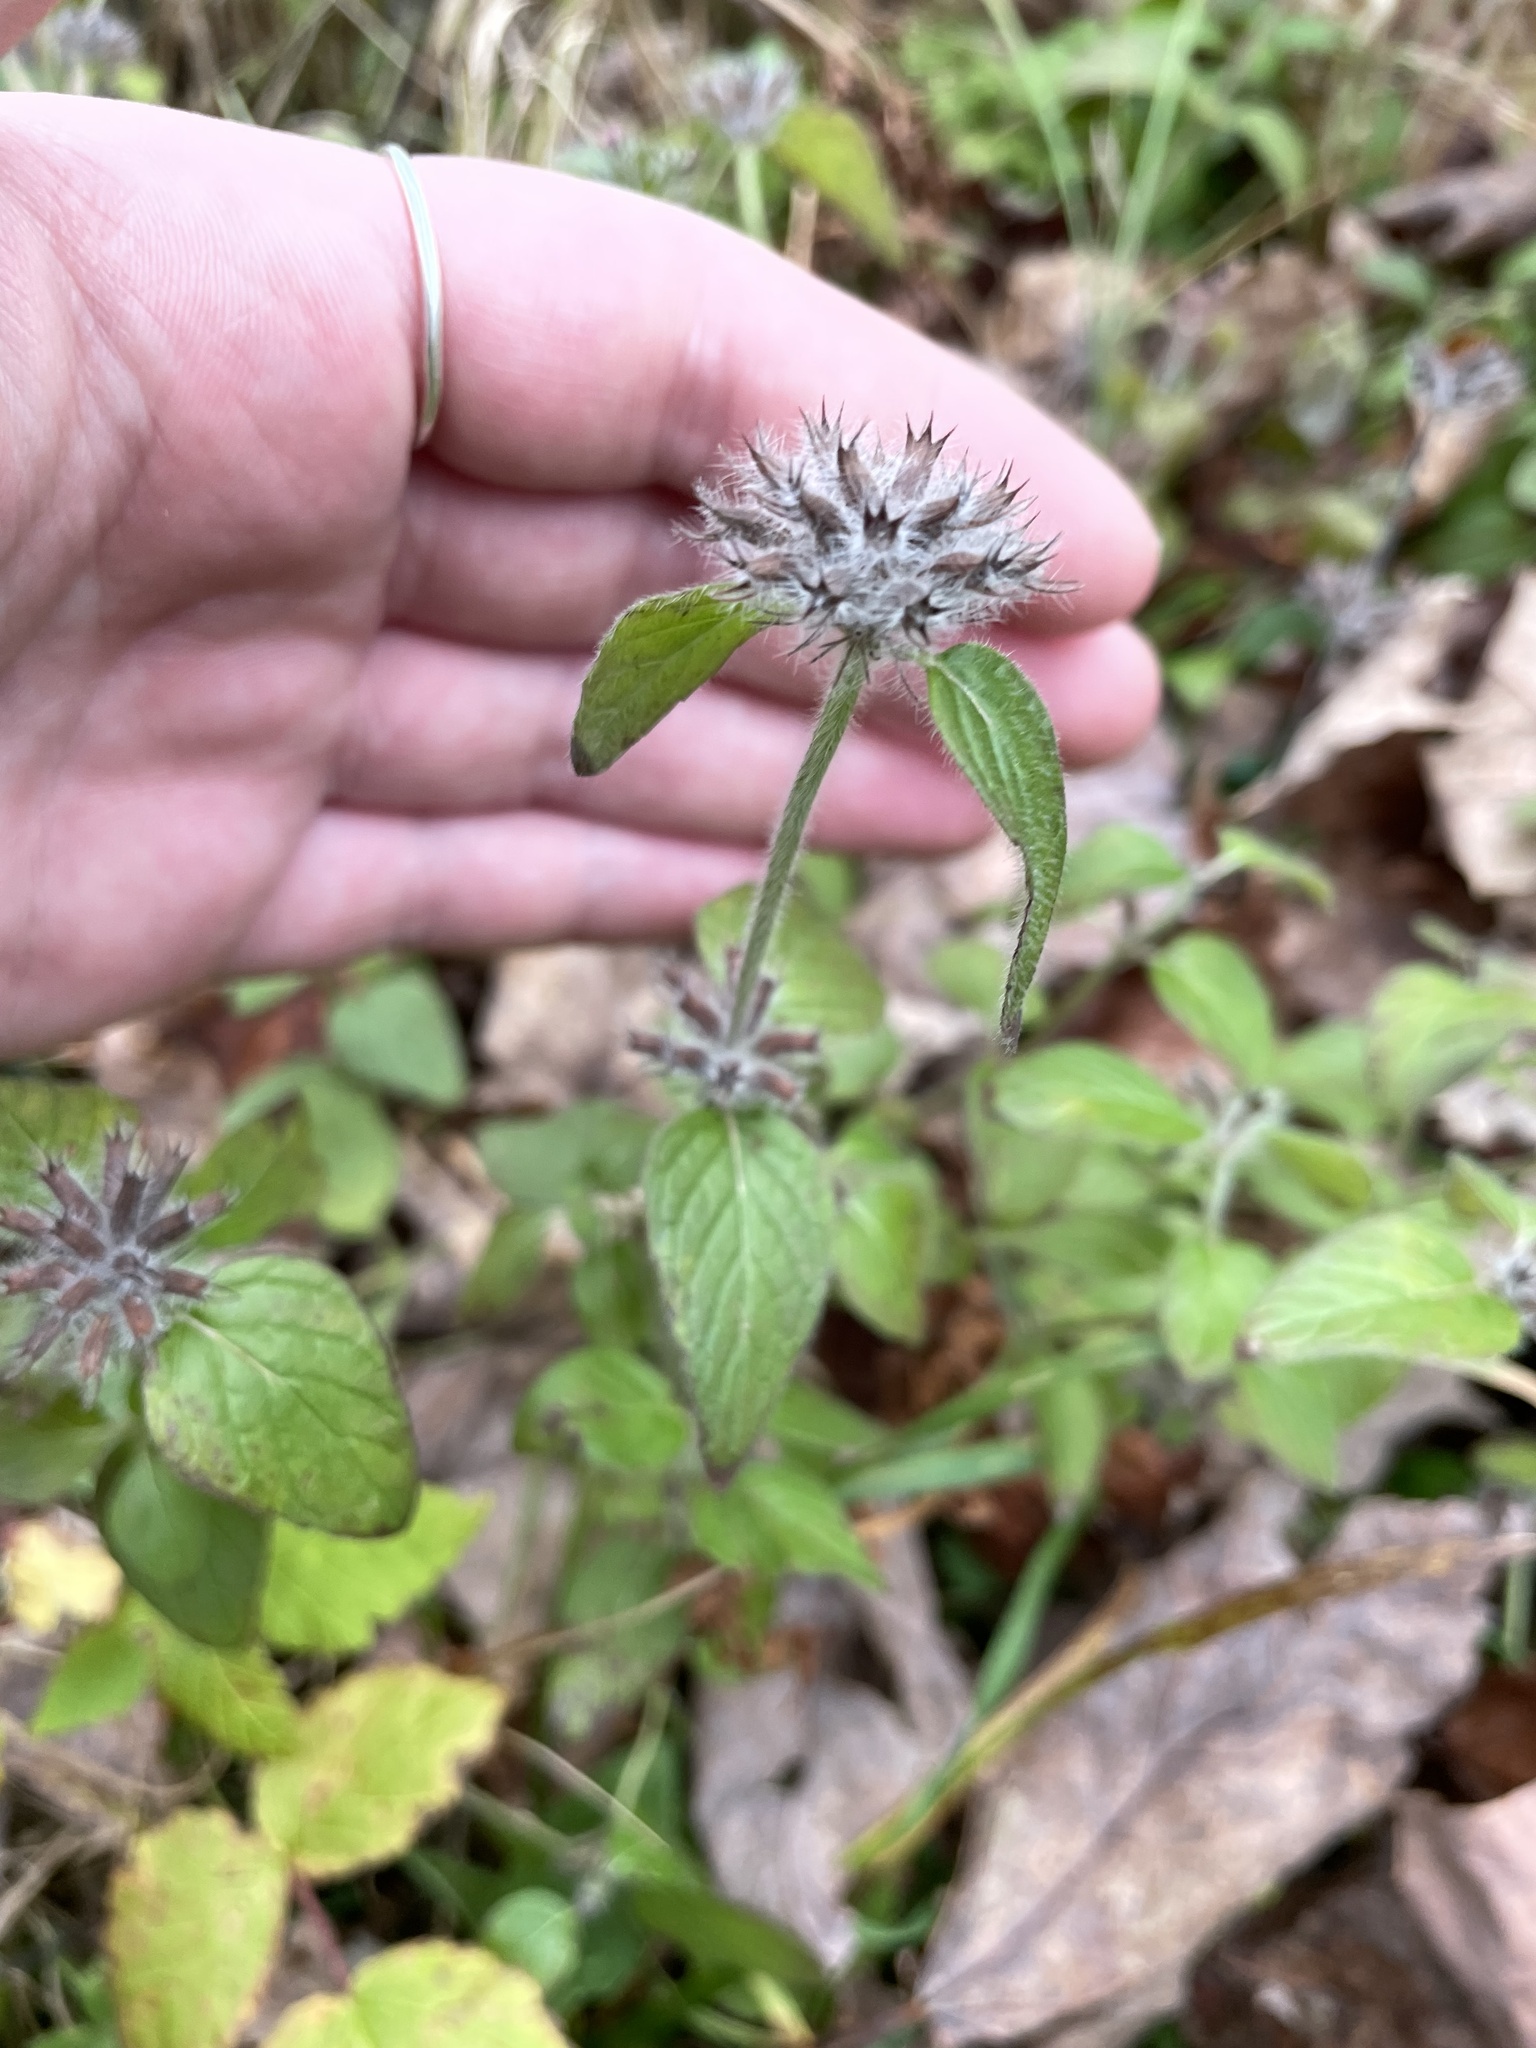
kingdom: Plantae
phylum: Tracheophyta
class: Magnoliopsida
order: Lamiales
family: Lamiaceae
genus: Clinopodium
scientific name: Clinopodium vulgare
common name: Wild basil
